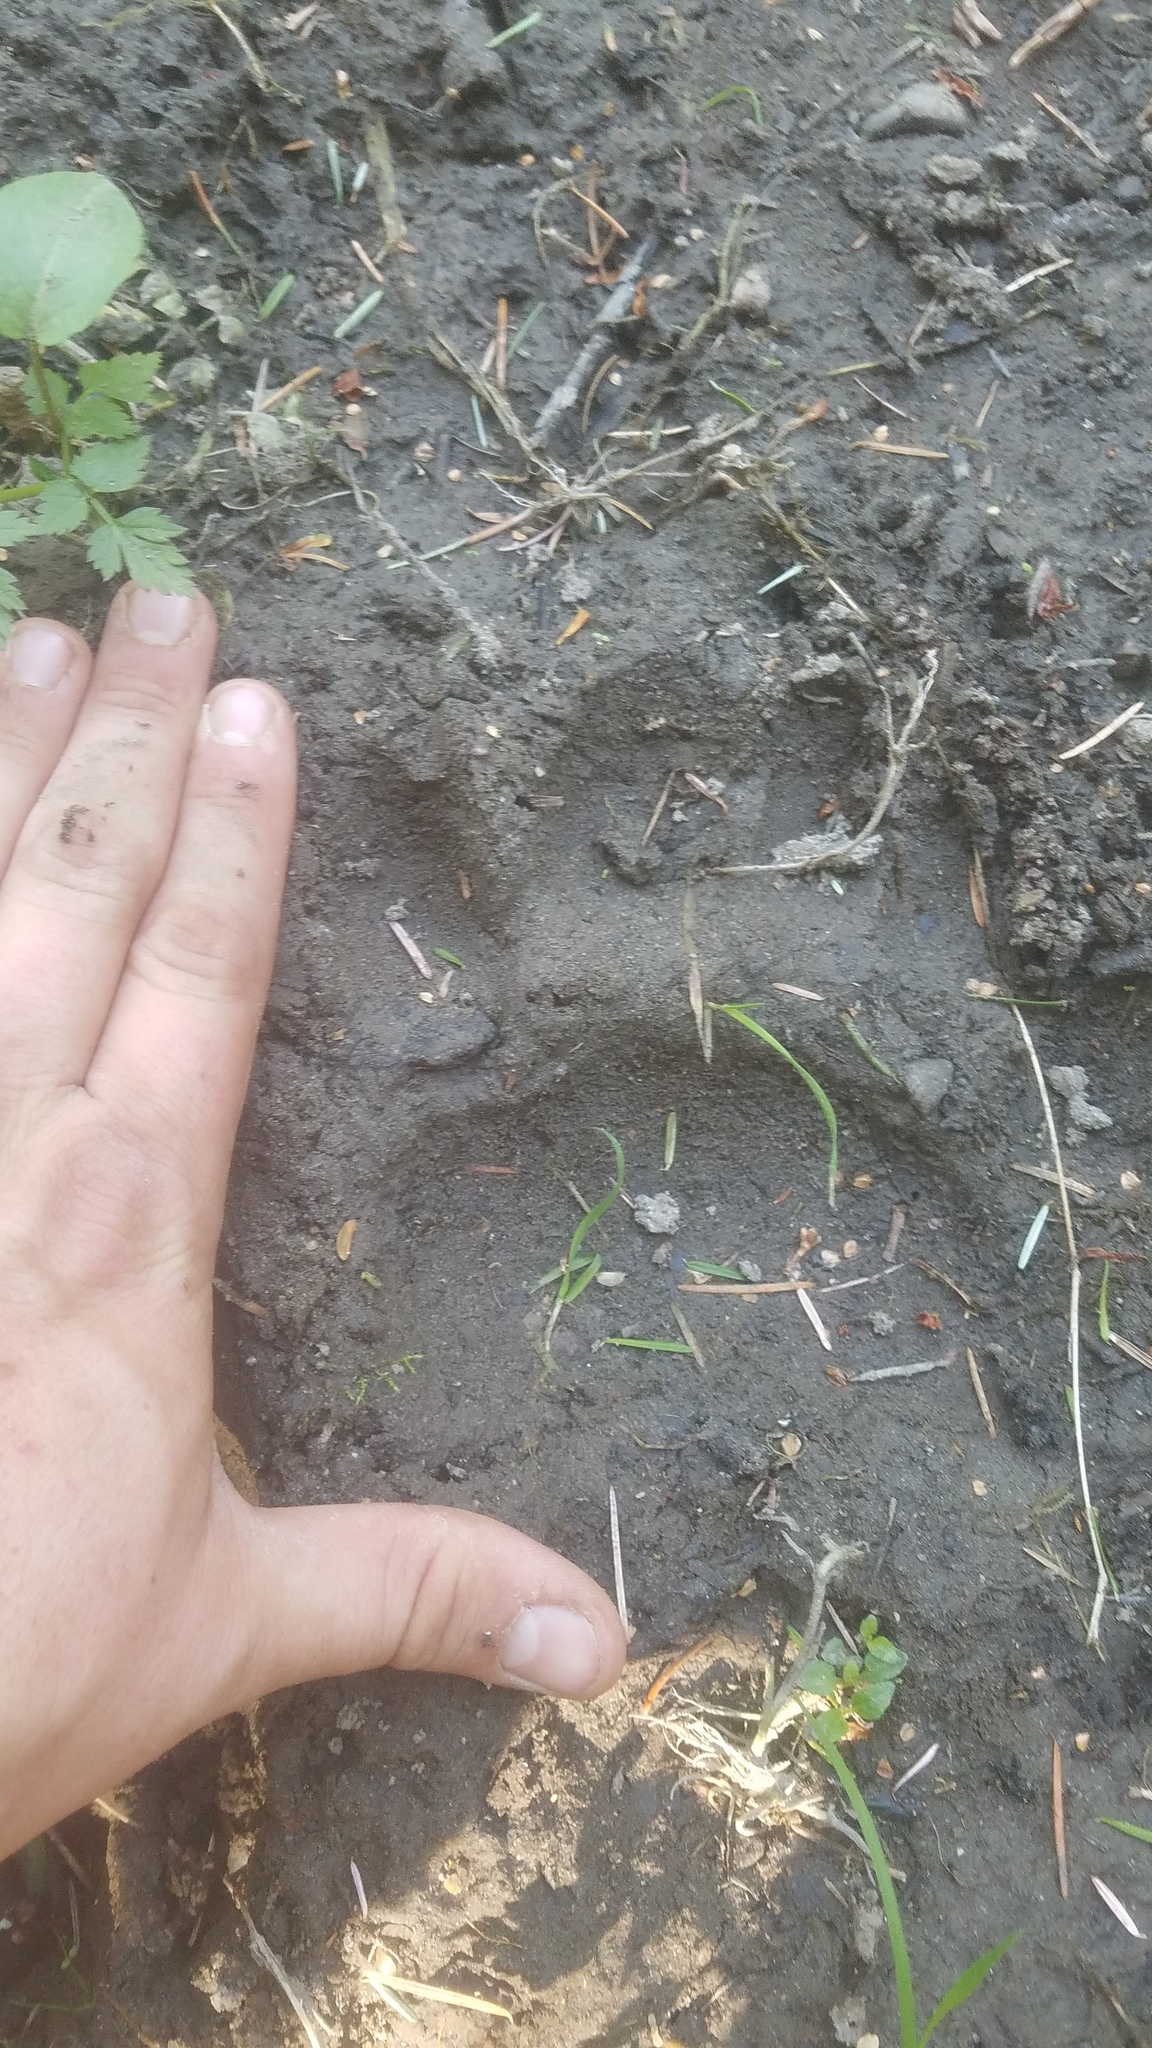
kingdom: Animalia
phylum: Chordata
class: Mammalia
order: Carnivora
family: Ursidae
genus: Ursus
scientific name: Ursus americanus
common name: American black bear
